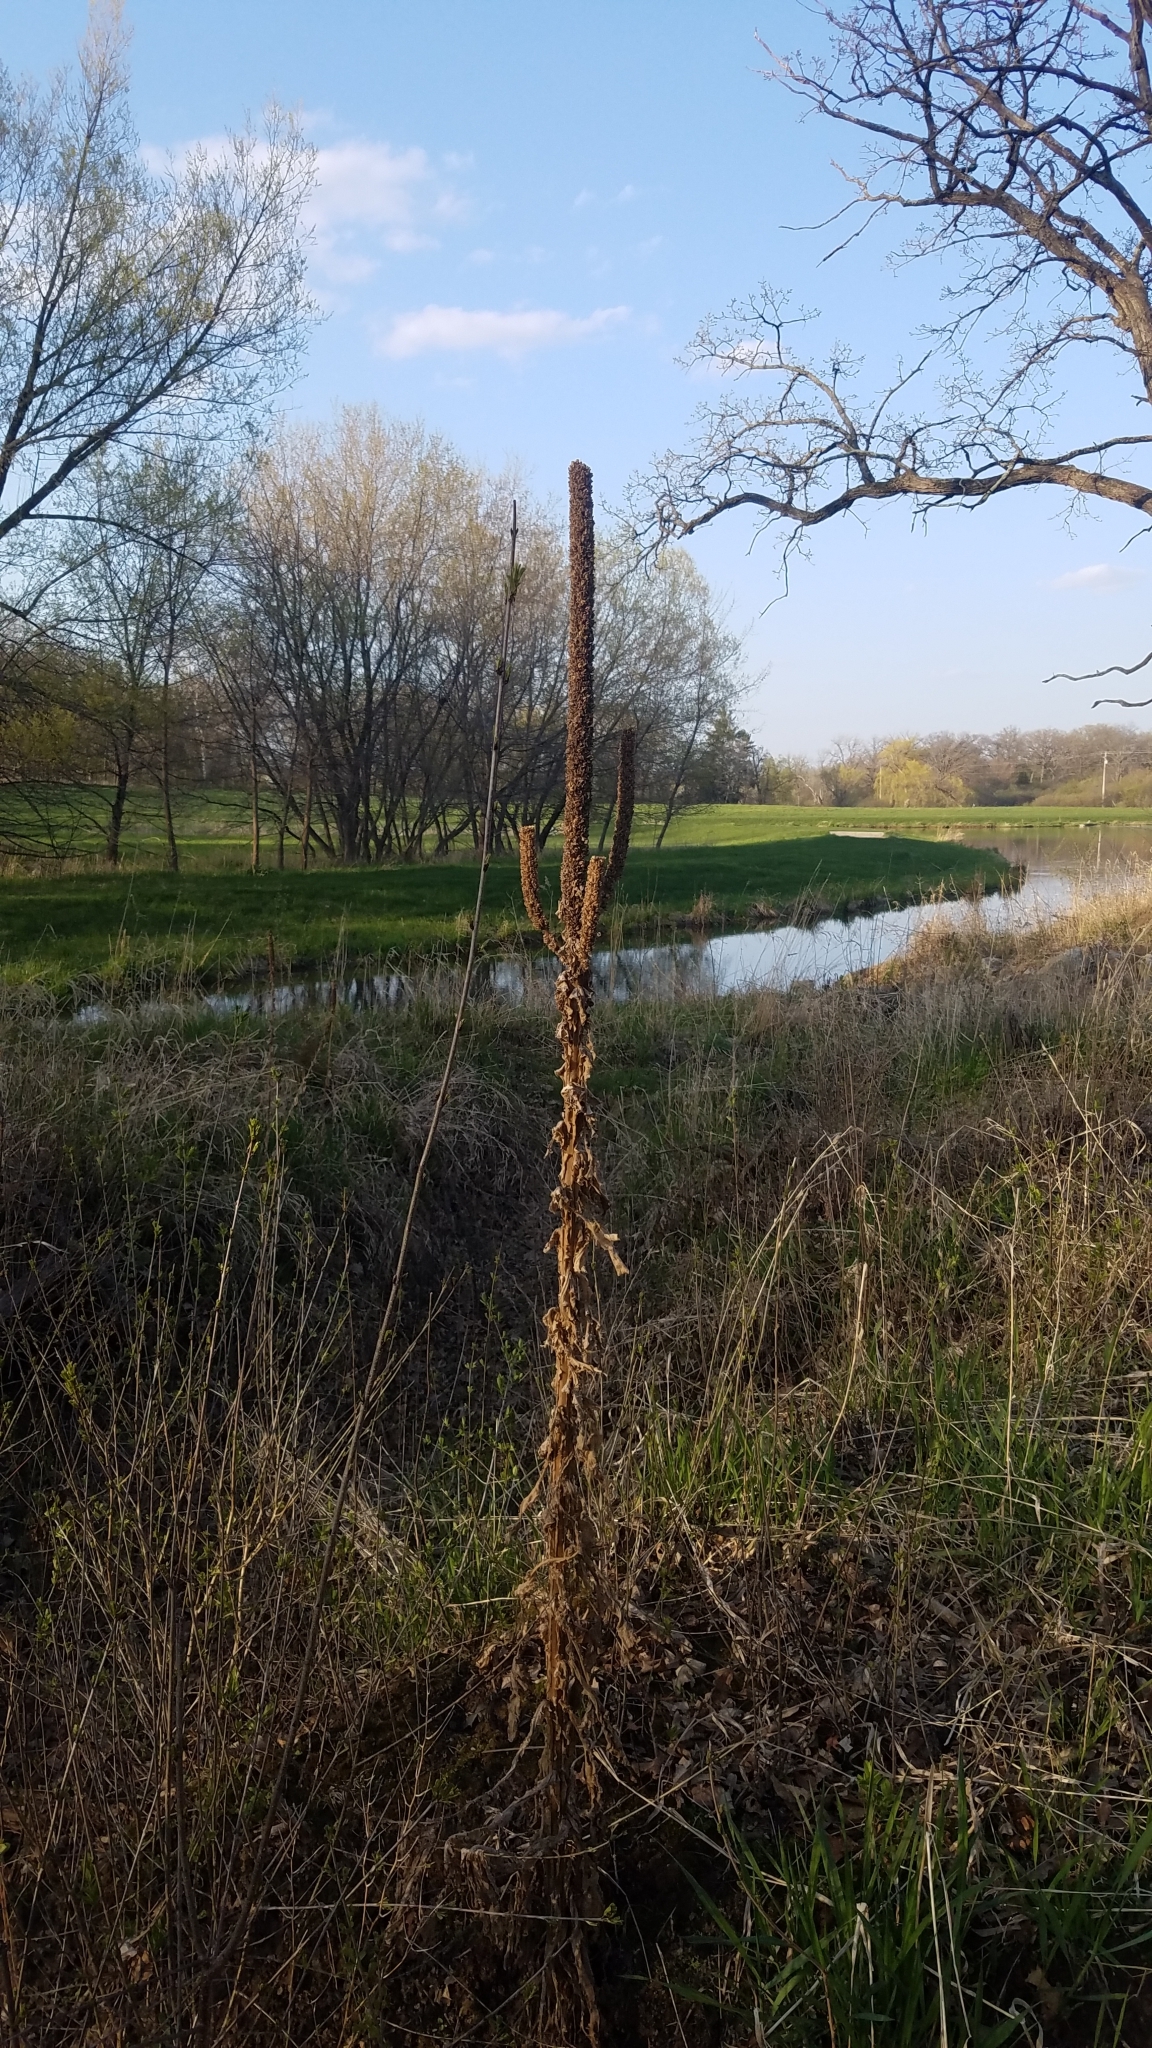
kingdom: Plantae
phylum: Tracheophyta
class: Magnoliopsida
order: Lamiales
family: Scrophulariaceae
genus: Verbascum
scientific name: Verbascum thapsus
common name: Common mullein
